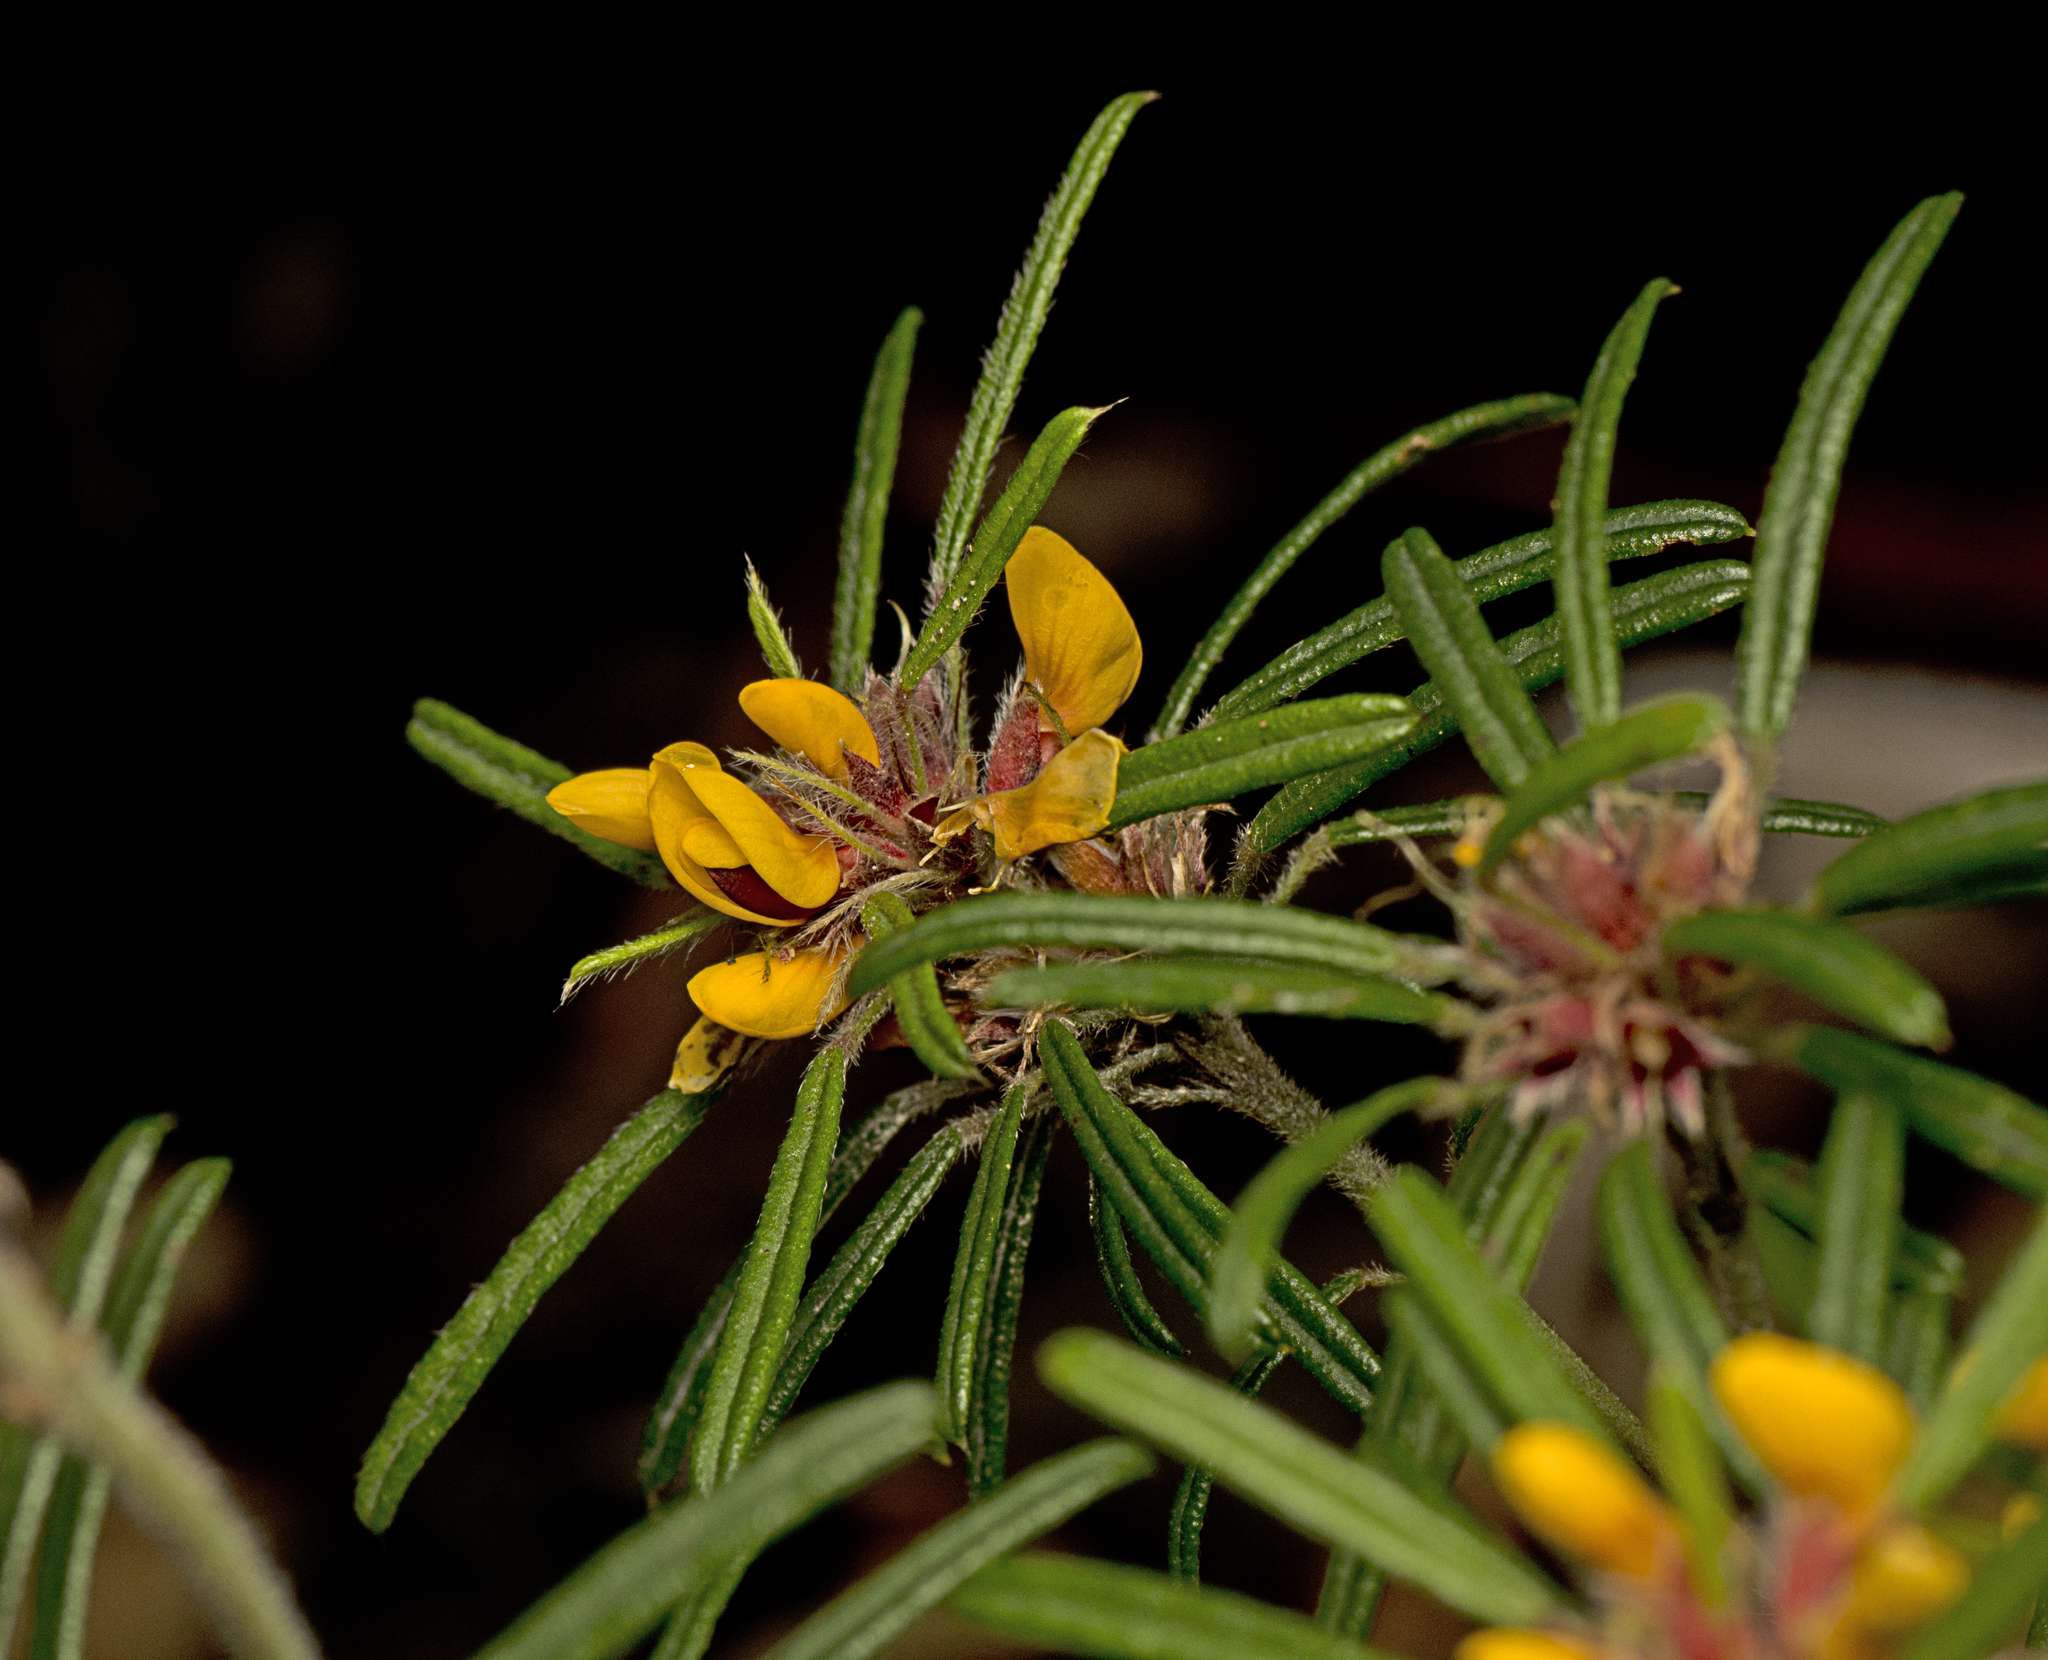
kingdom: Plantae
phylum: Tracheophyta
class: Magnoliopsida
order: Fabales
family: Fabaceae
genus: Pultenaea
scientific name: Pultenaea petiolaris
